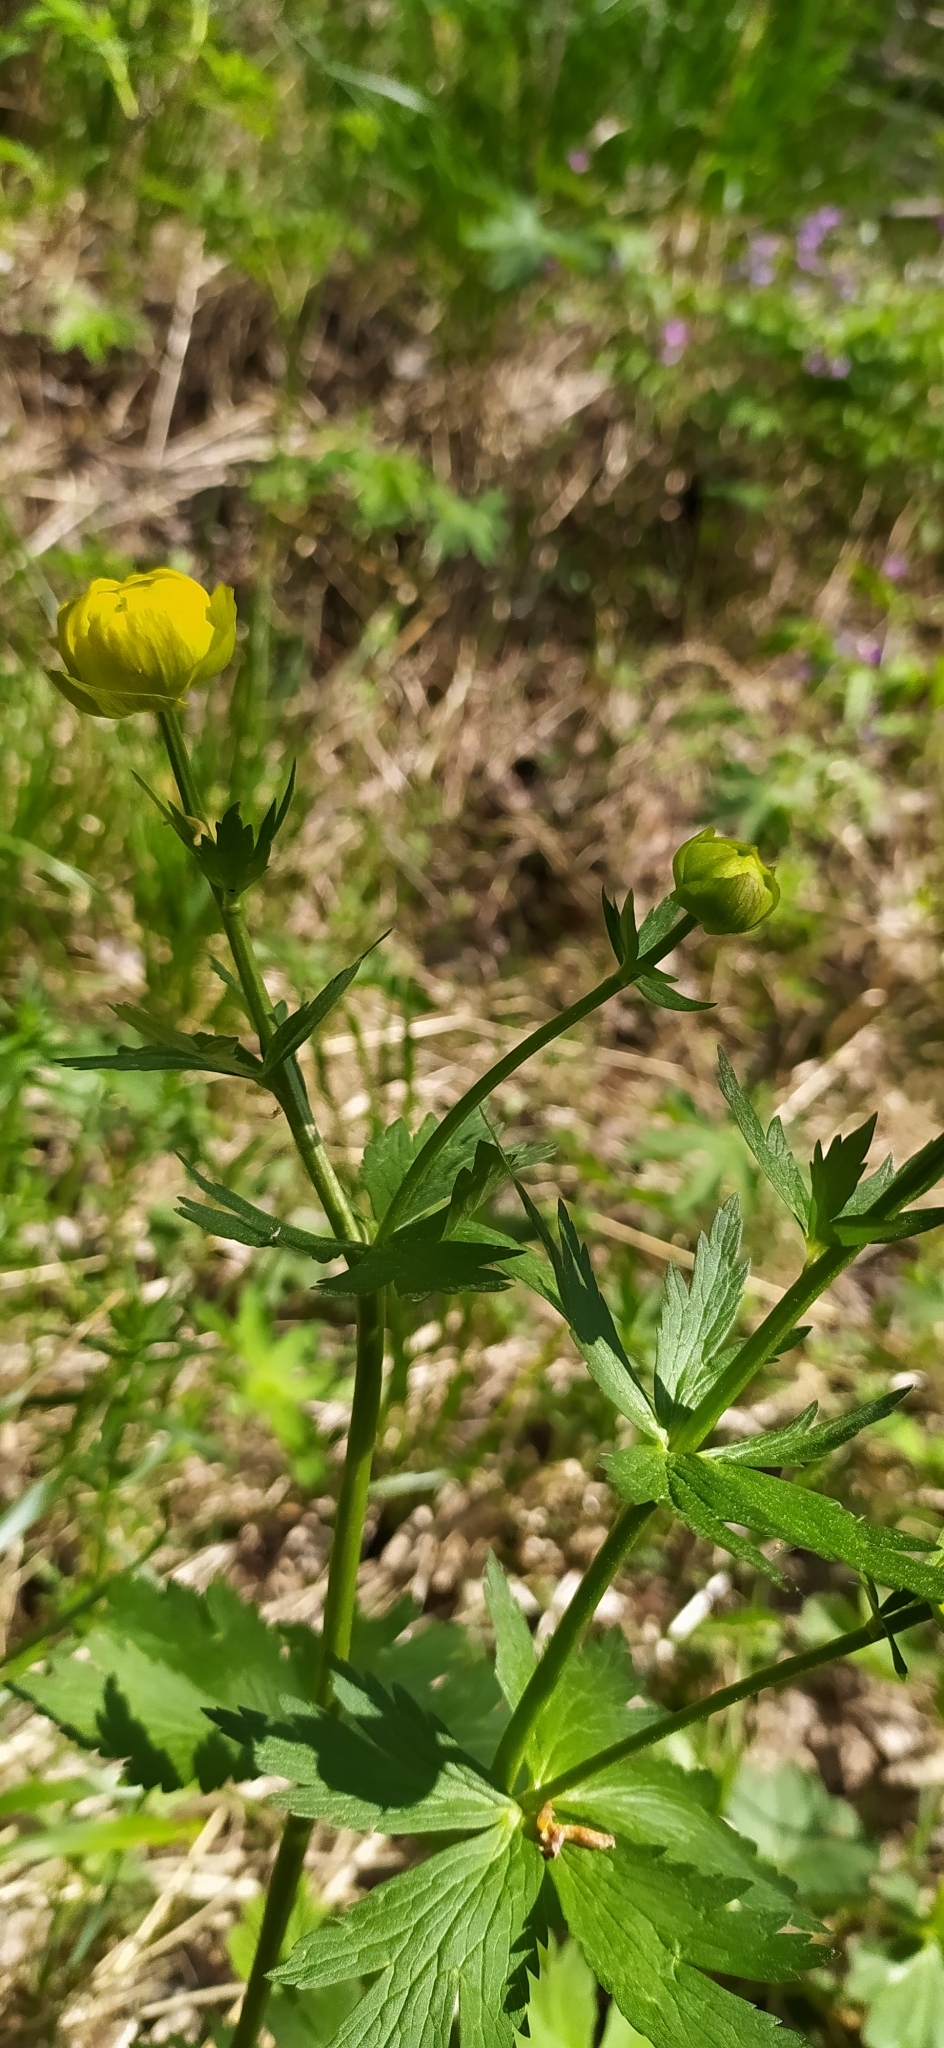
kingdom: Plantae
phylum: Tracheophyta
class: Magnoliopsida
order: Ranunculales
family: Ranunculaceae
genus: Trollius
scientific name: Trollius europaeus
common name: European globeflower
